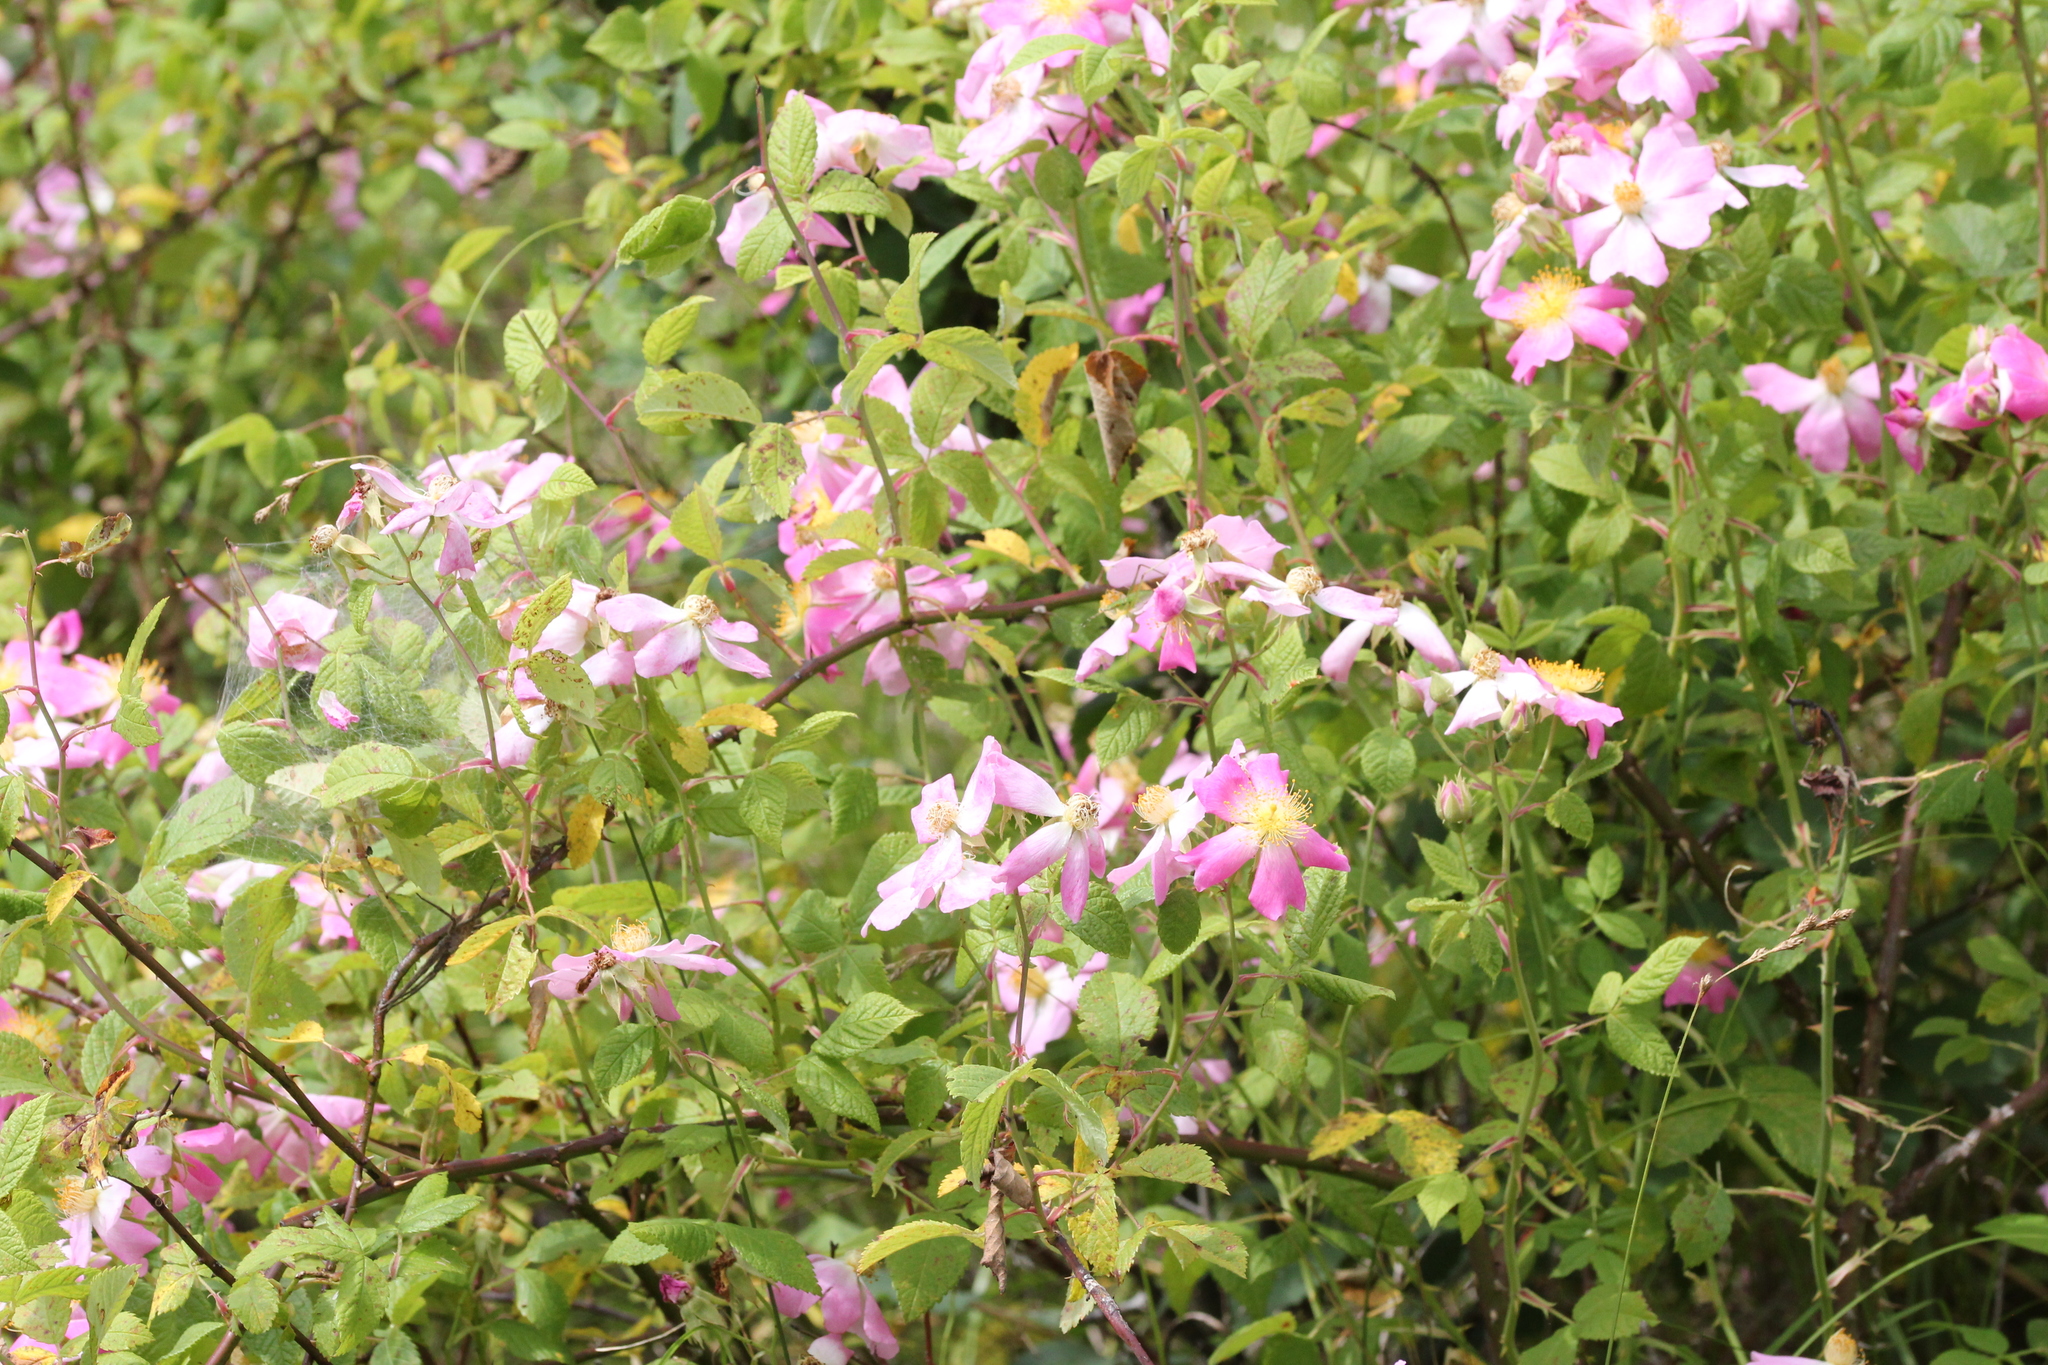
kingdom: Plantae
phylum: Tracheophyta
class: Magnoliopsida
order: Rosales
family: Rosaceae
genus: Rosa
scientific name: Rosa setigera
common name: Prairie rose
